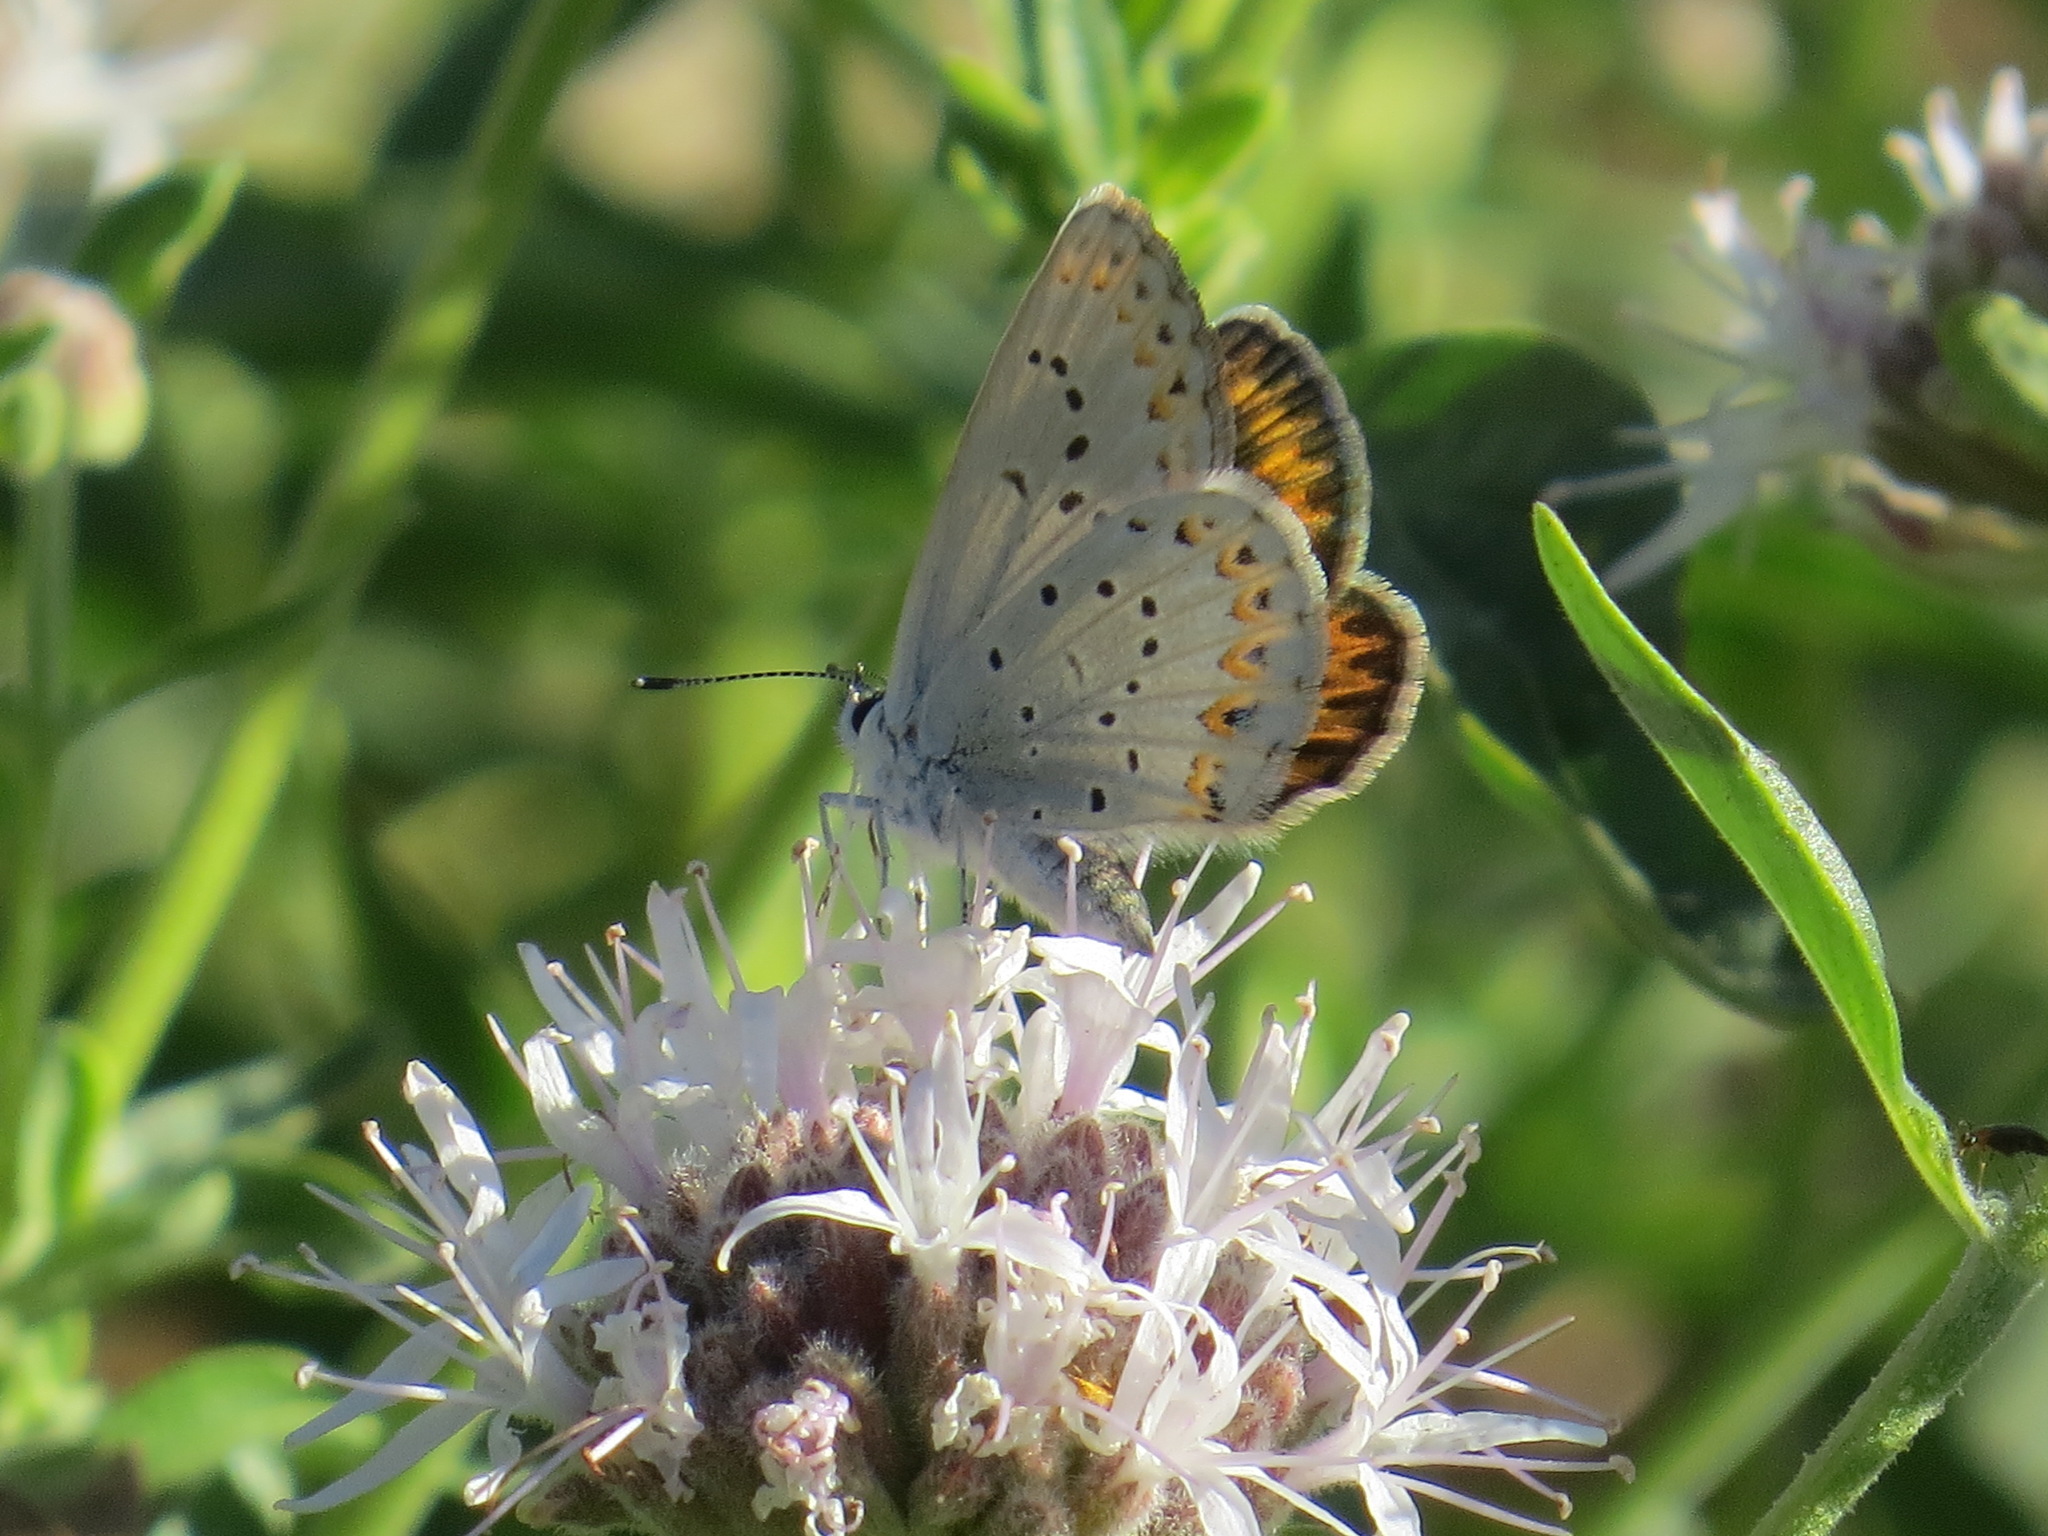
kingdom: Animalia
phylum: Arthropoda
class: Insecta
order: Lepidoptera
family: Lycaenidae
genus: Lycaeides
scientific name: Lycaeides anna
